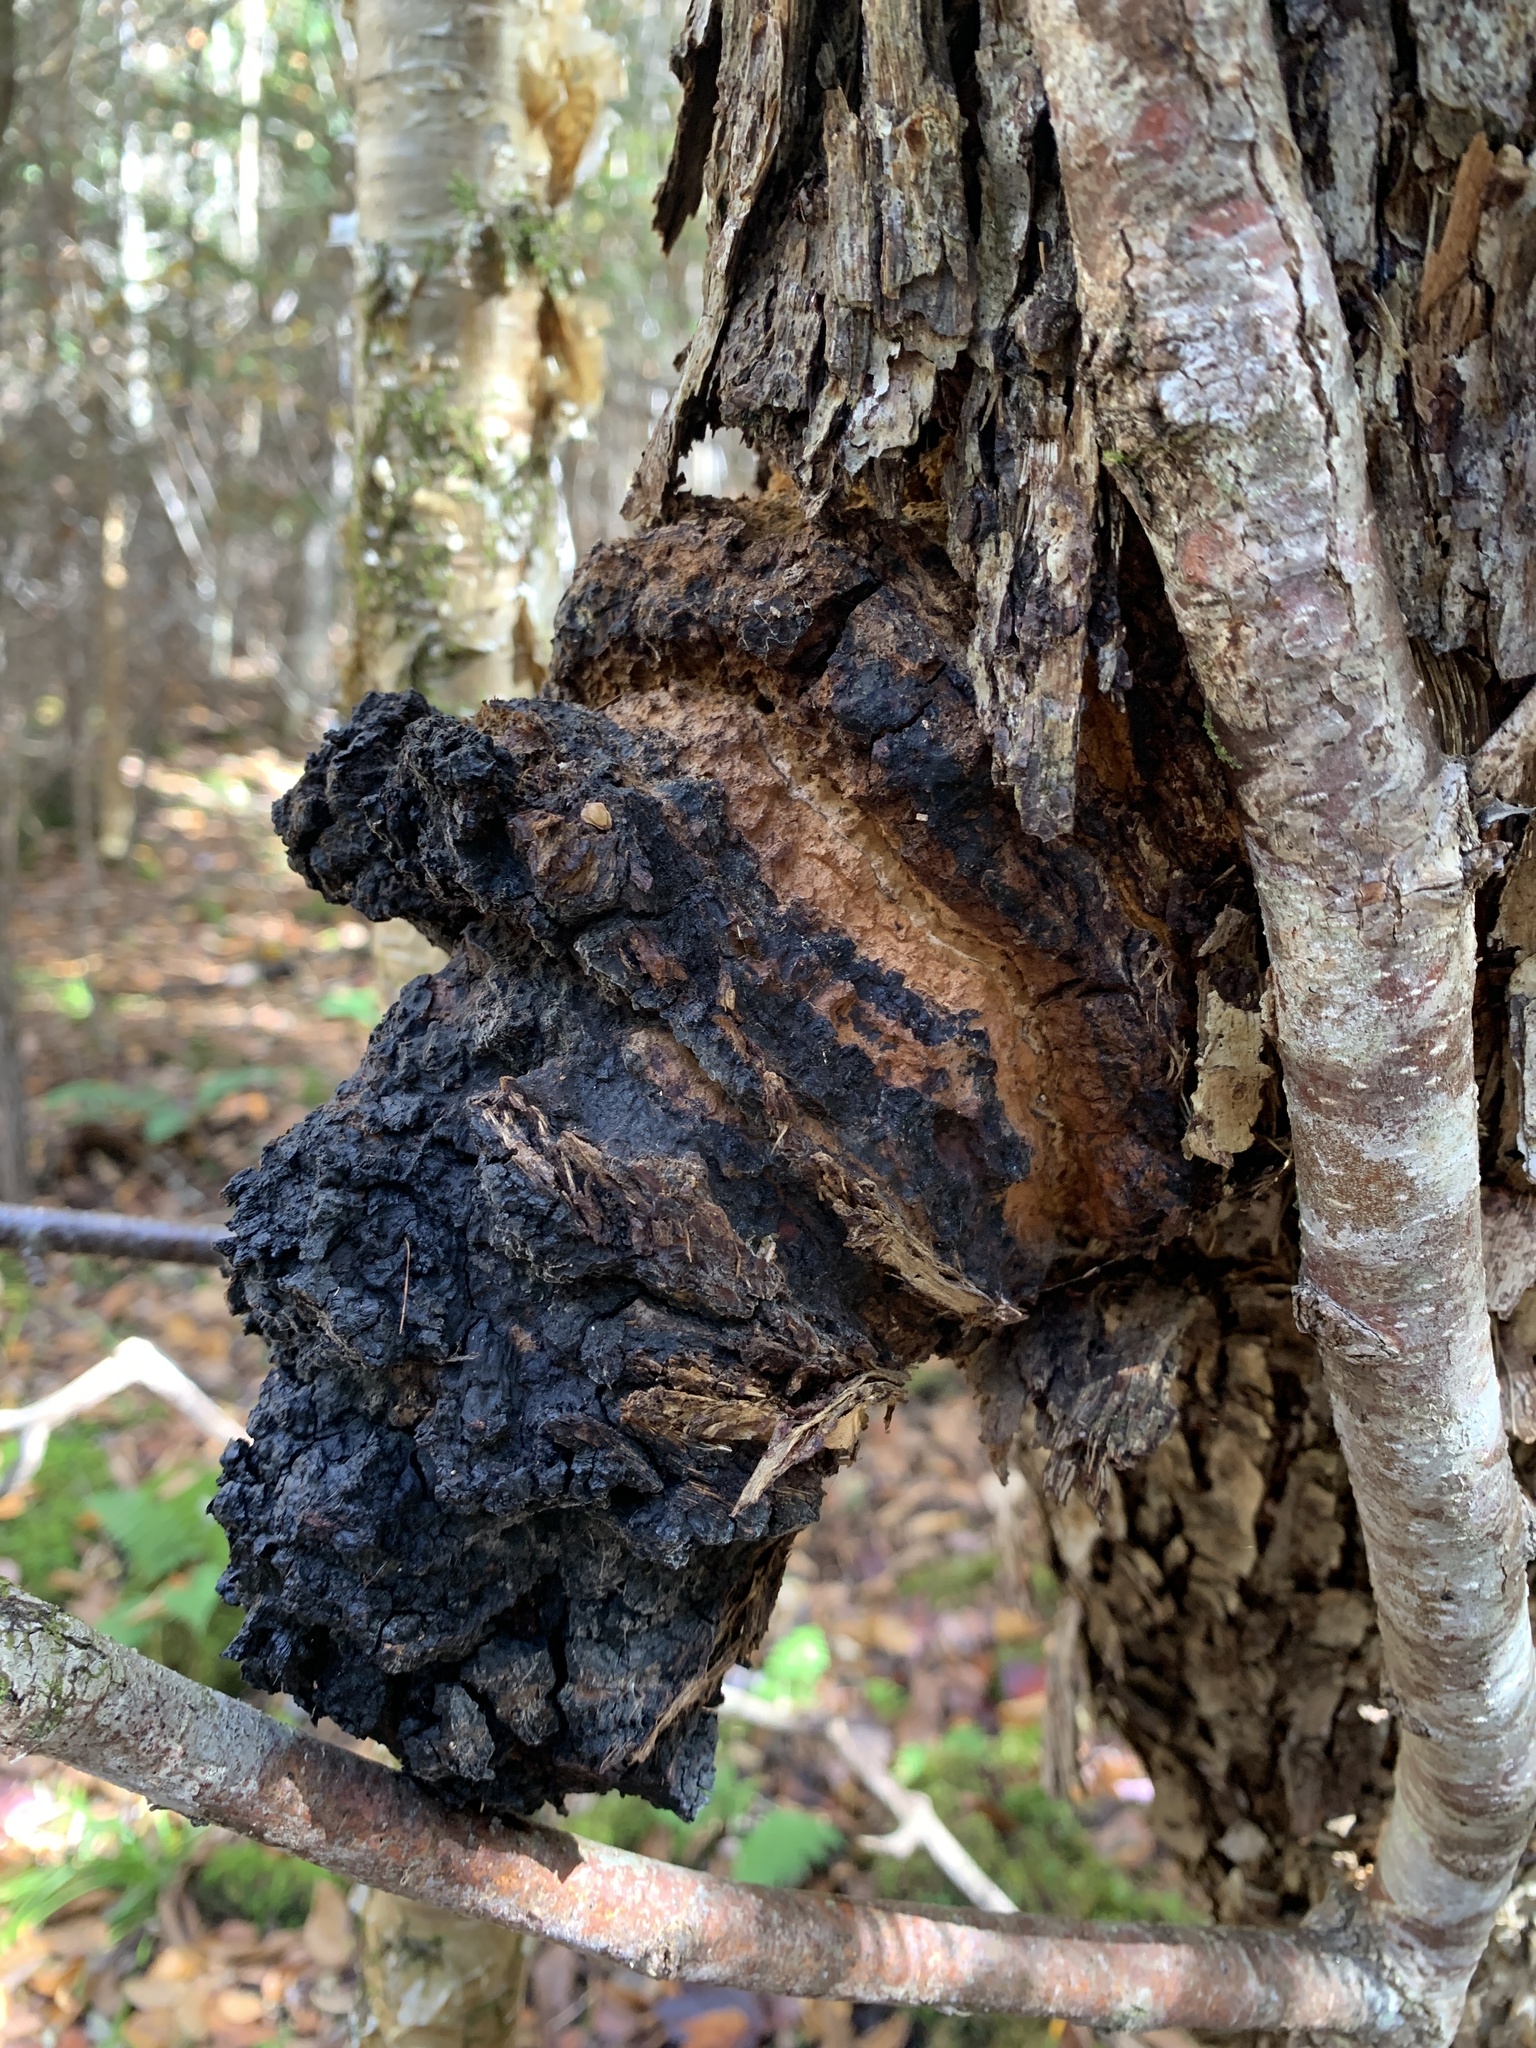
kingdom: Fungi
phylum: Basidiomycota
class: Agaricomycetes
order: Hymenochaetales
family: Hymenochaetaceae
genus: Inonotus
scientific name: Inonotus obliquus
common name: Chaga
